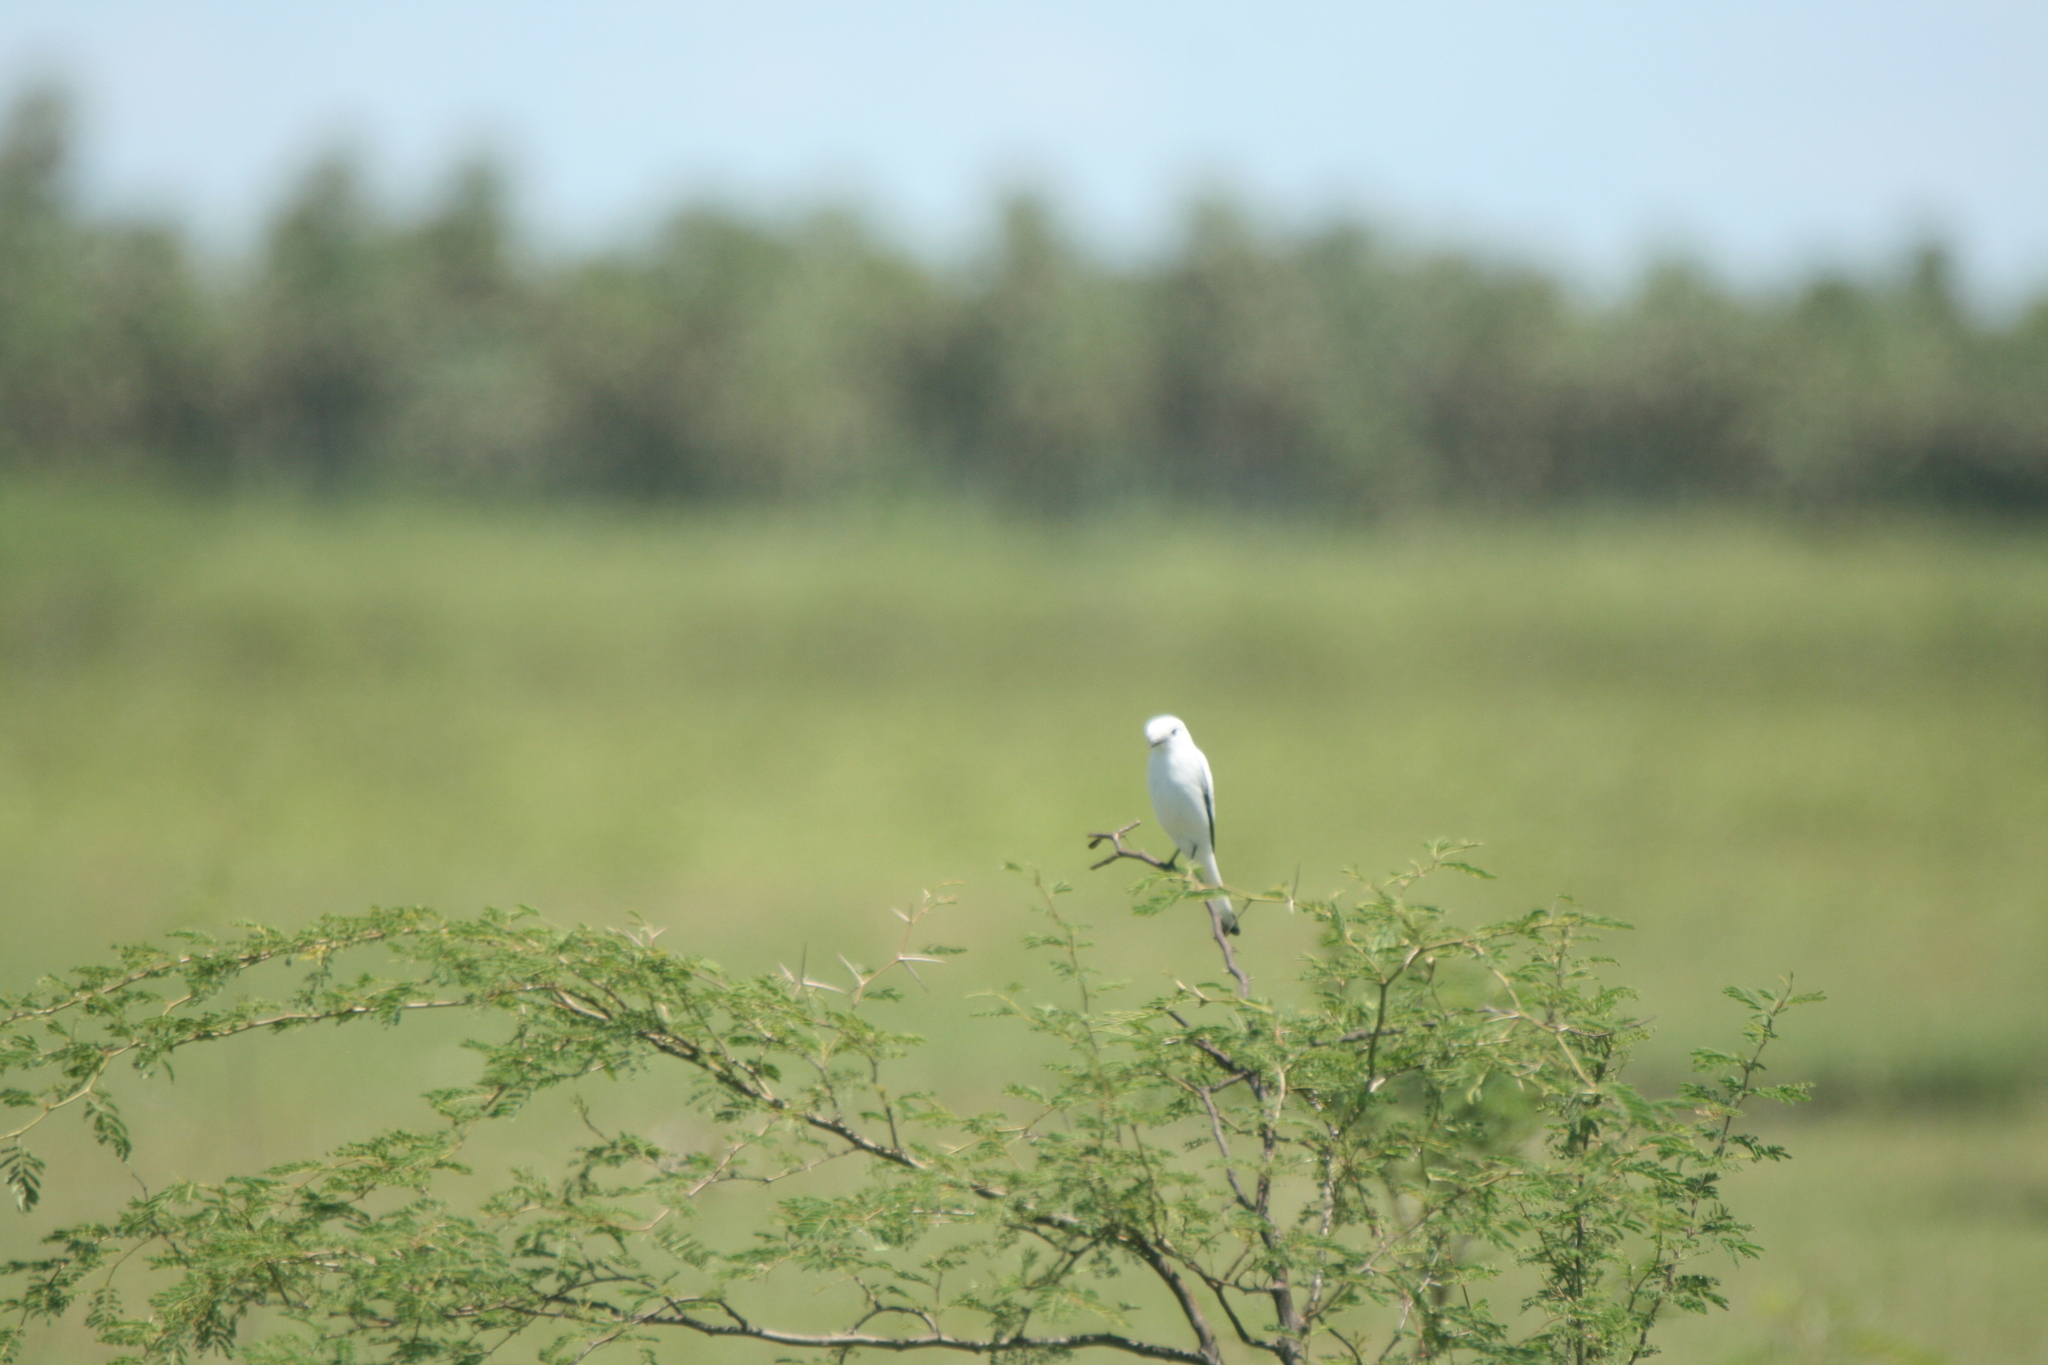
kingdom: Animalia
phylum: Chordata
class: Aves
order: Passeriformes
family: Tyrannidae
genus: Xolmis
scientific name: Xolmis irupero
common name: White monjita
